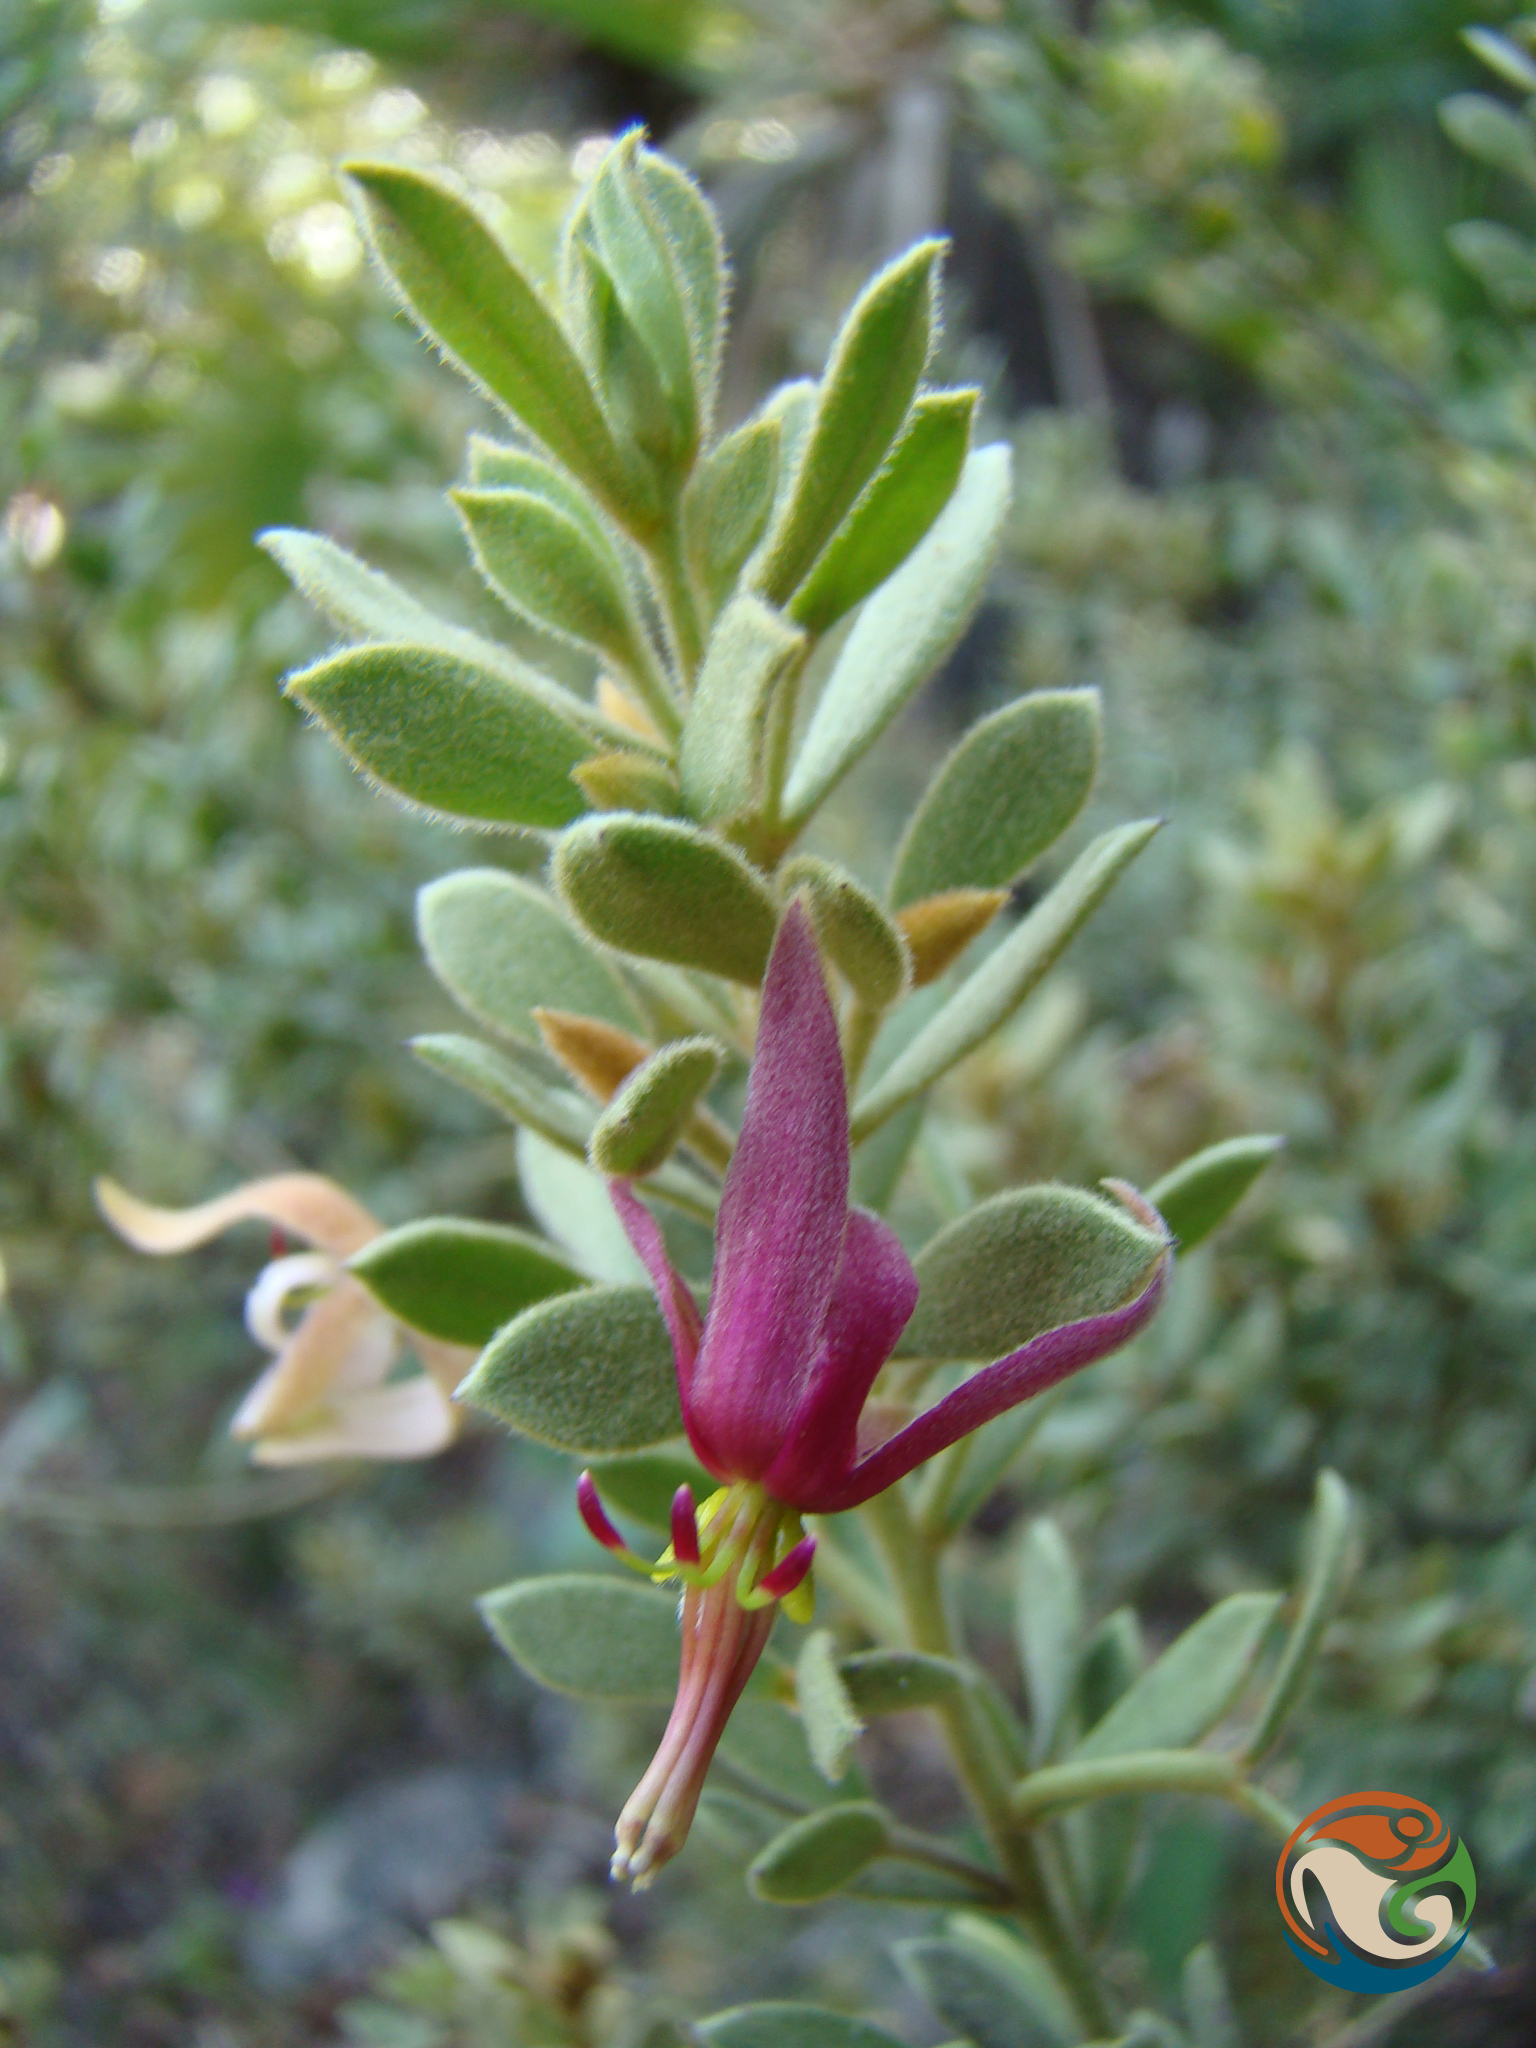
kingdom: Plantae
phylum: Tracheophyta
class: Magnoliopsida
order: Zygophyllales
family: Krameriaceae
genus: Krameria
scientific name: Krameria cytisoides
